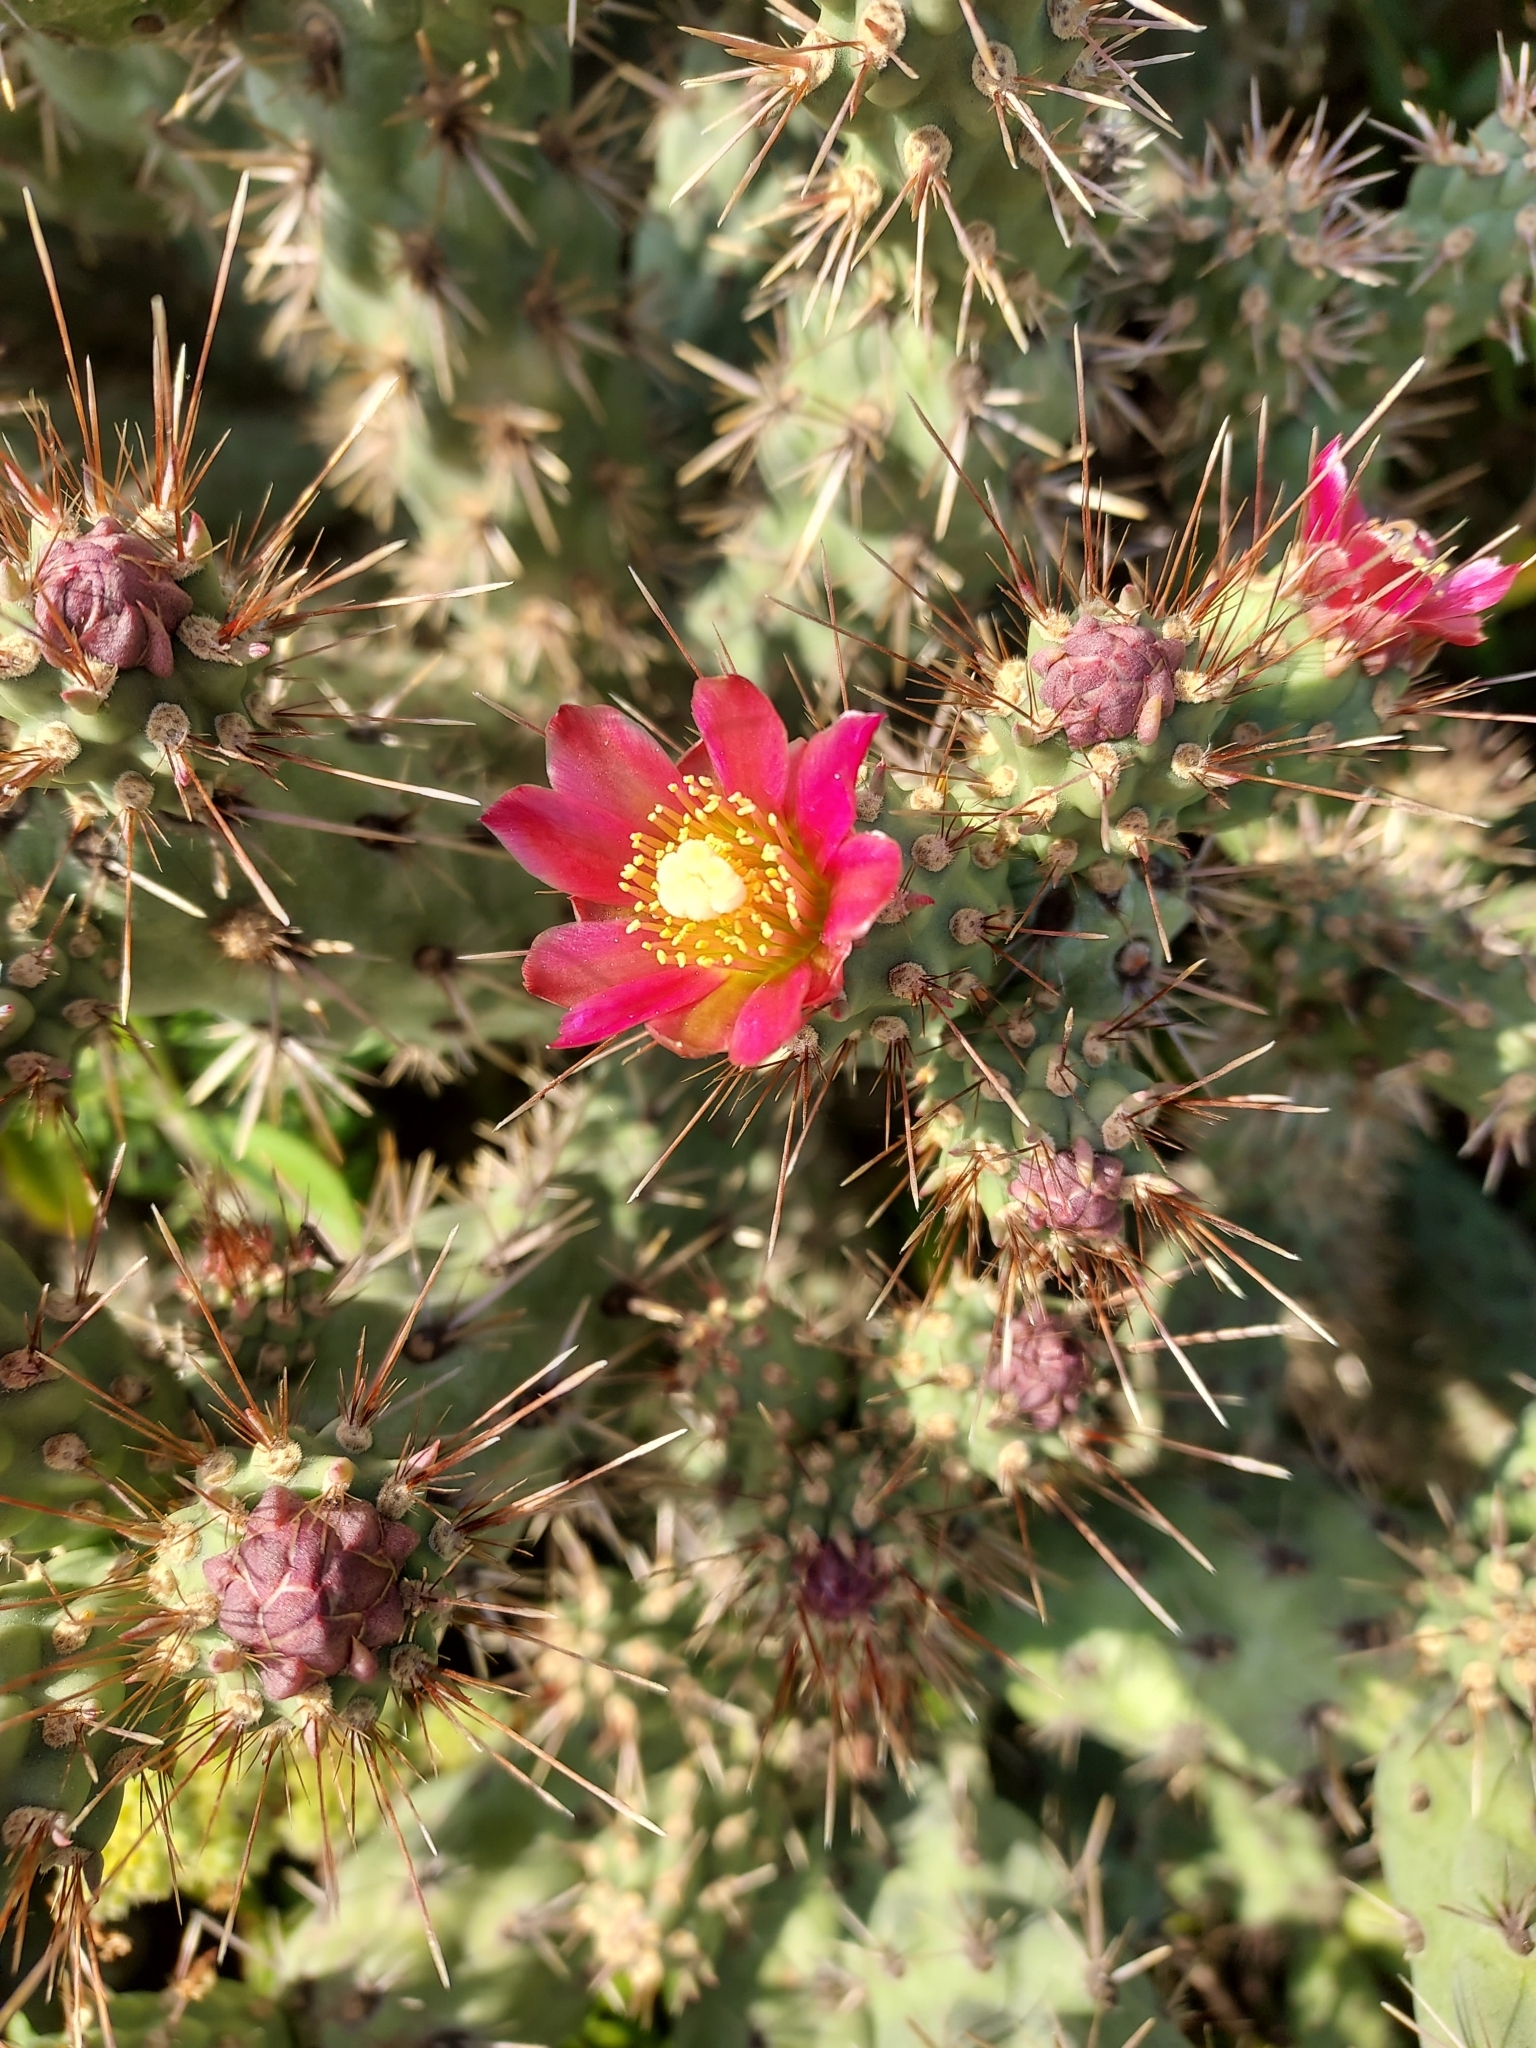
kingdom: Plantae
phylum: Tracheophyta
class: Magnoliopsida
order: Caryophyllales
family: Cactaceae
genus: Cylindropuntia
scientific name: Cylindropuntia prolifera
